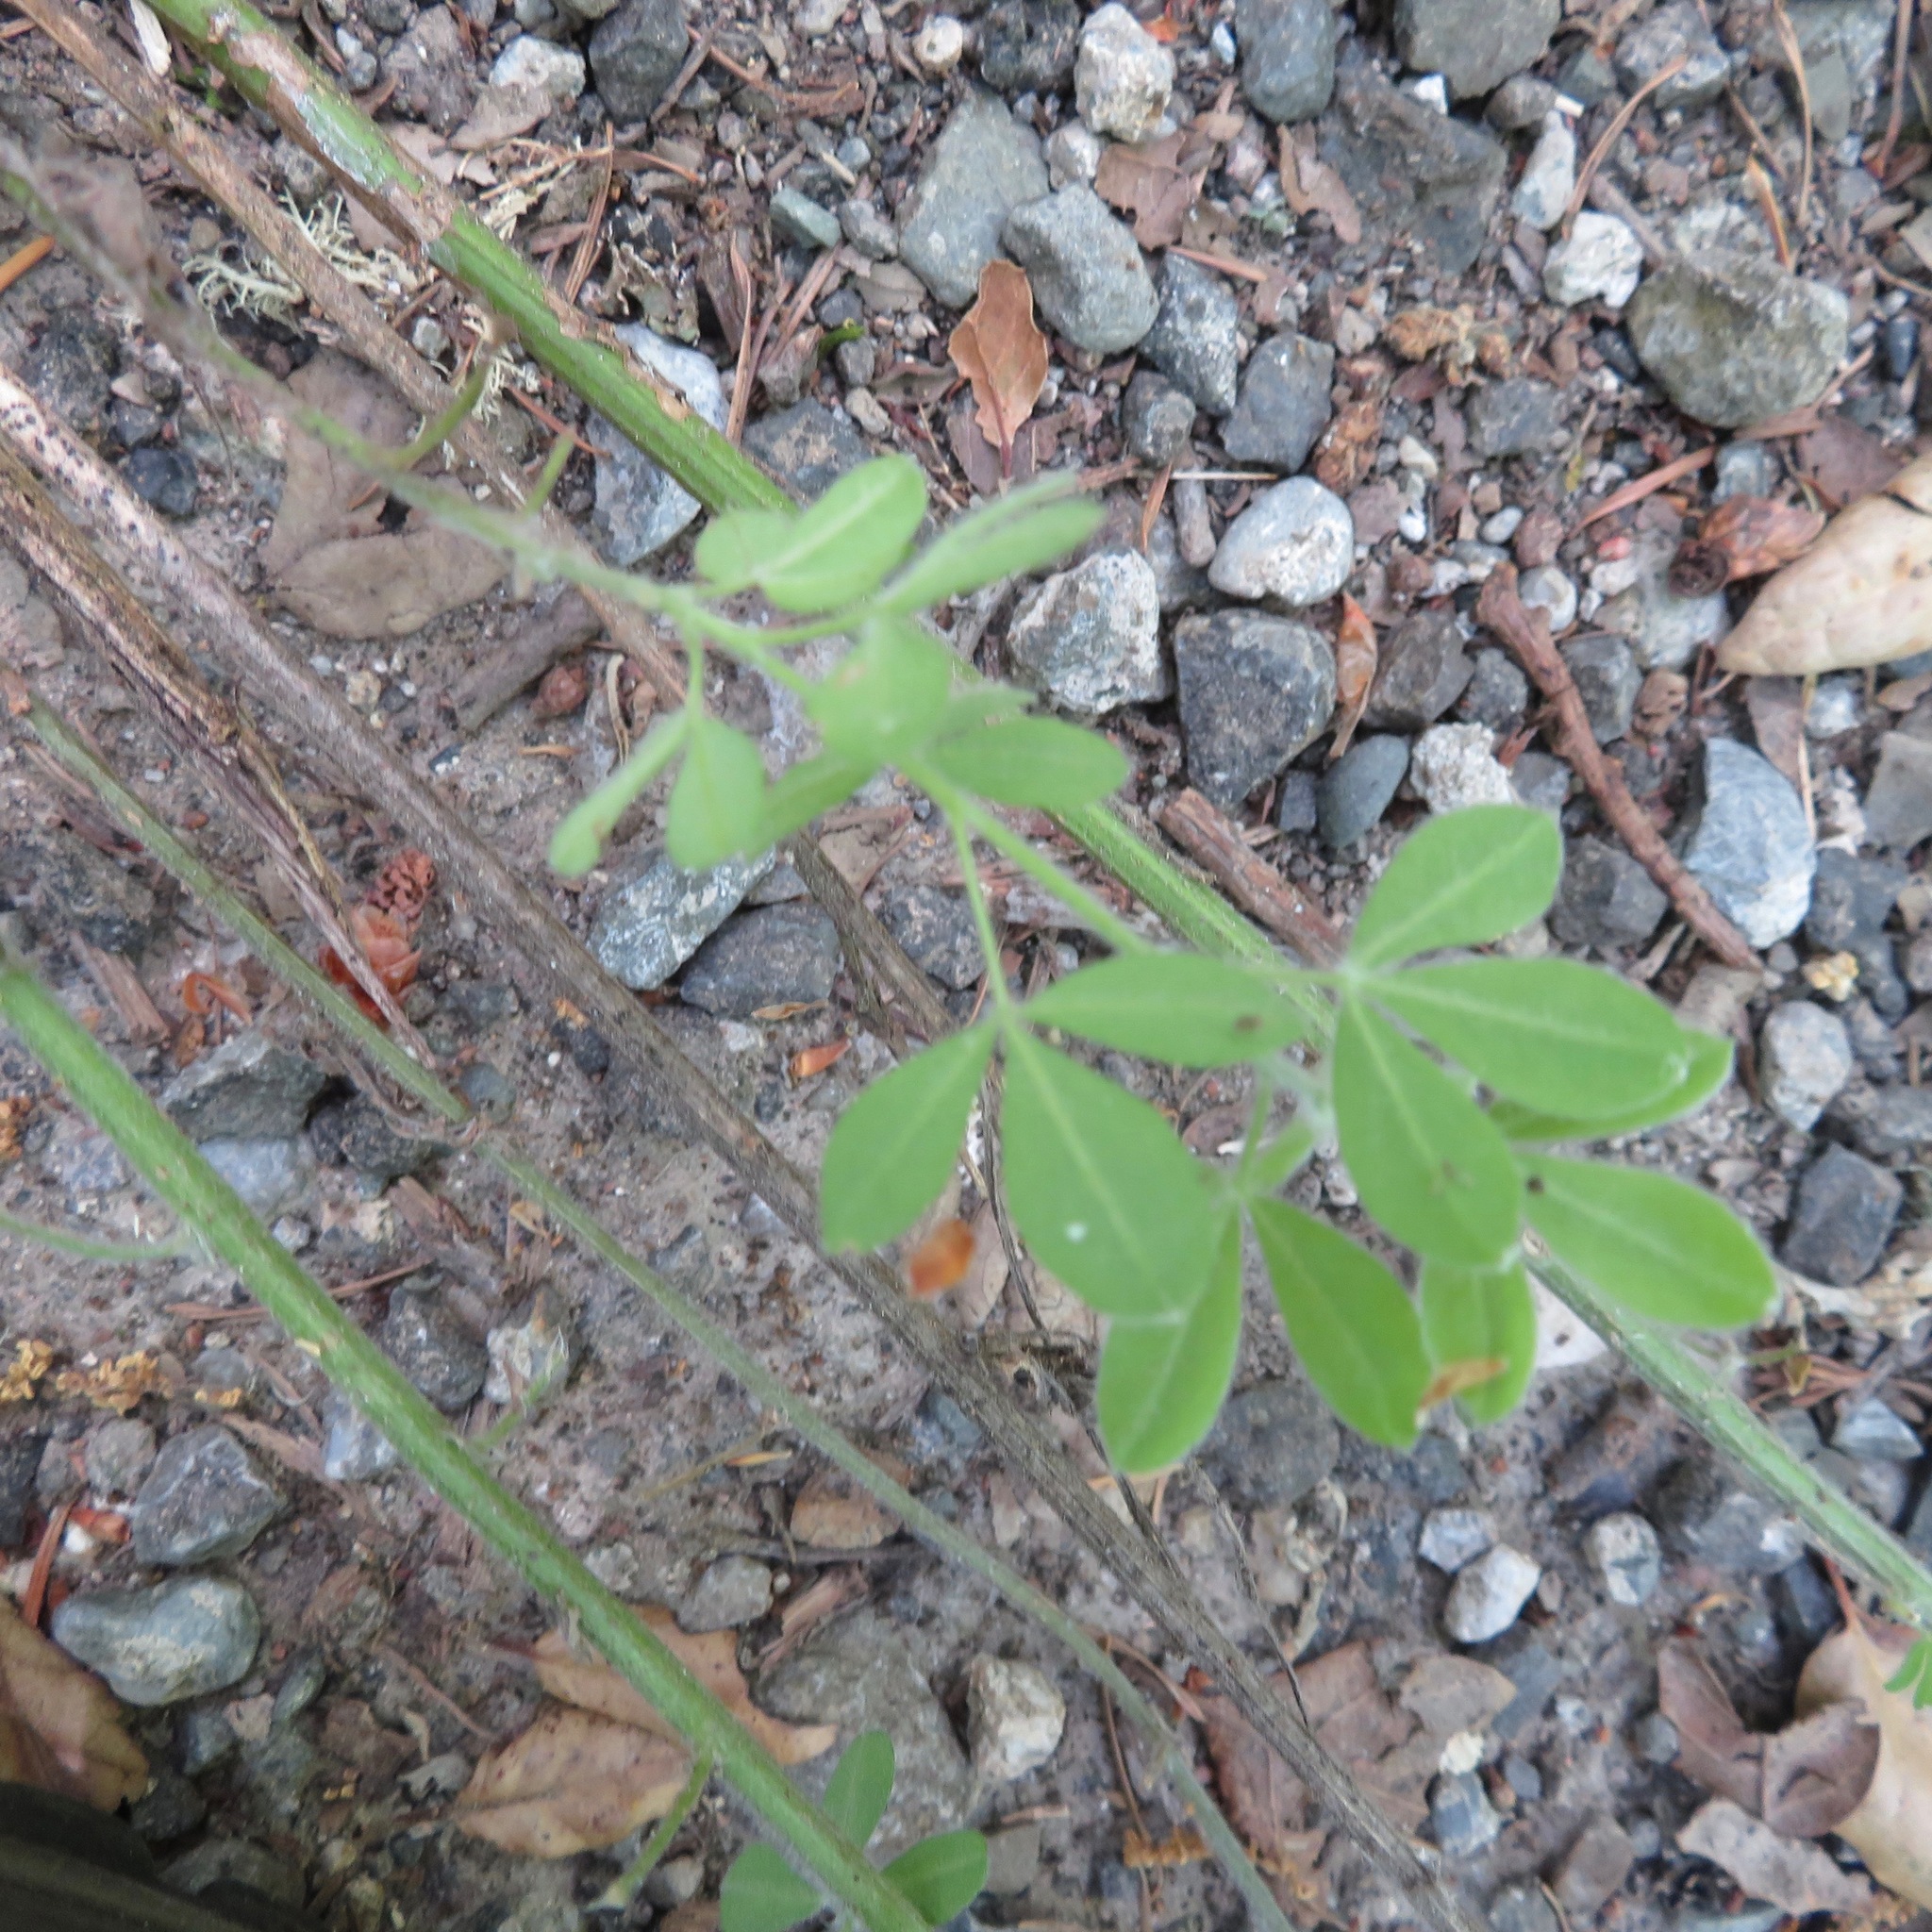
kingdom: Plantae
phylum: Tracheophyta
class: Magnoliopsida
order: Fabales
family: Fabaceae
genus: Genista
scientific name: Genista monspessulana
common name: Montpellier broom
